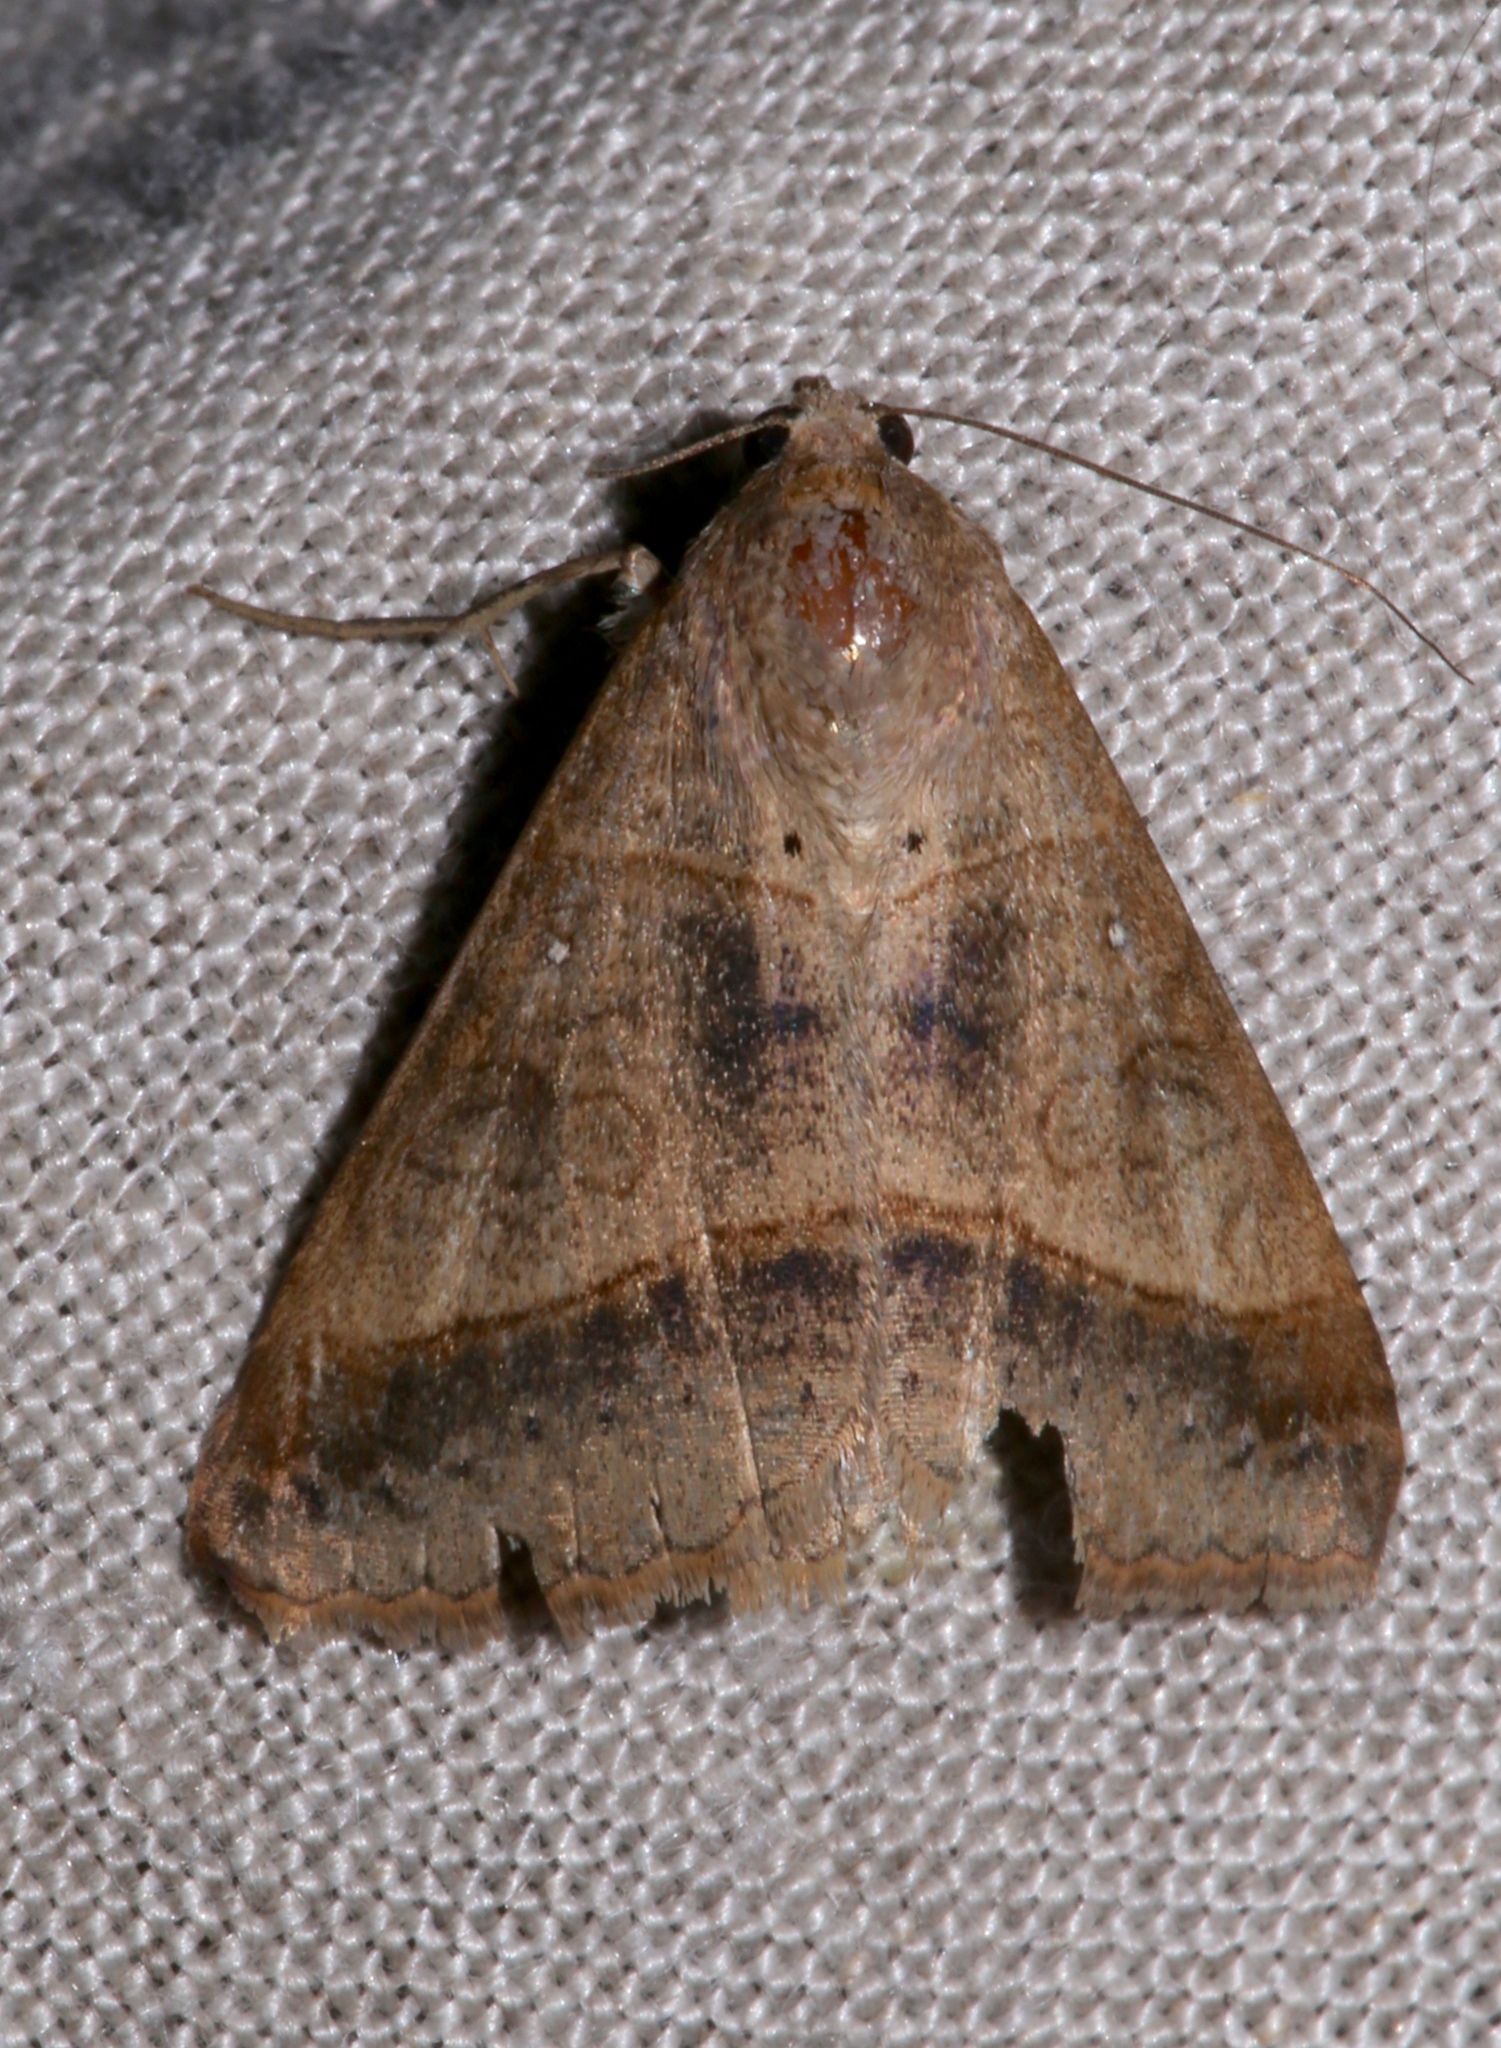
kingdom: Animalia
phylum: Arthropoda
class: Insecta
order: Lepidoptera
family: Erebidae
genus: Mocis
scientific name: Mocis latipes
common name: Striped grass looper
